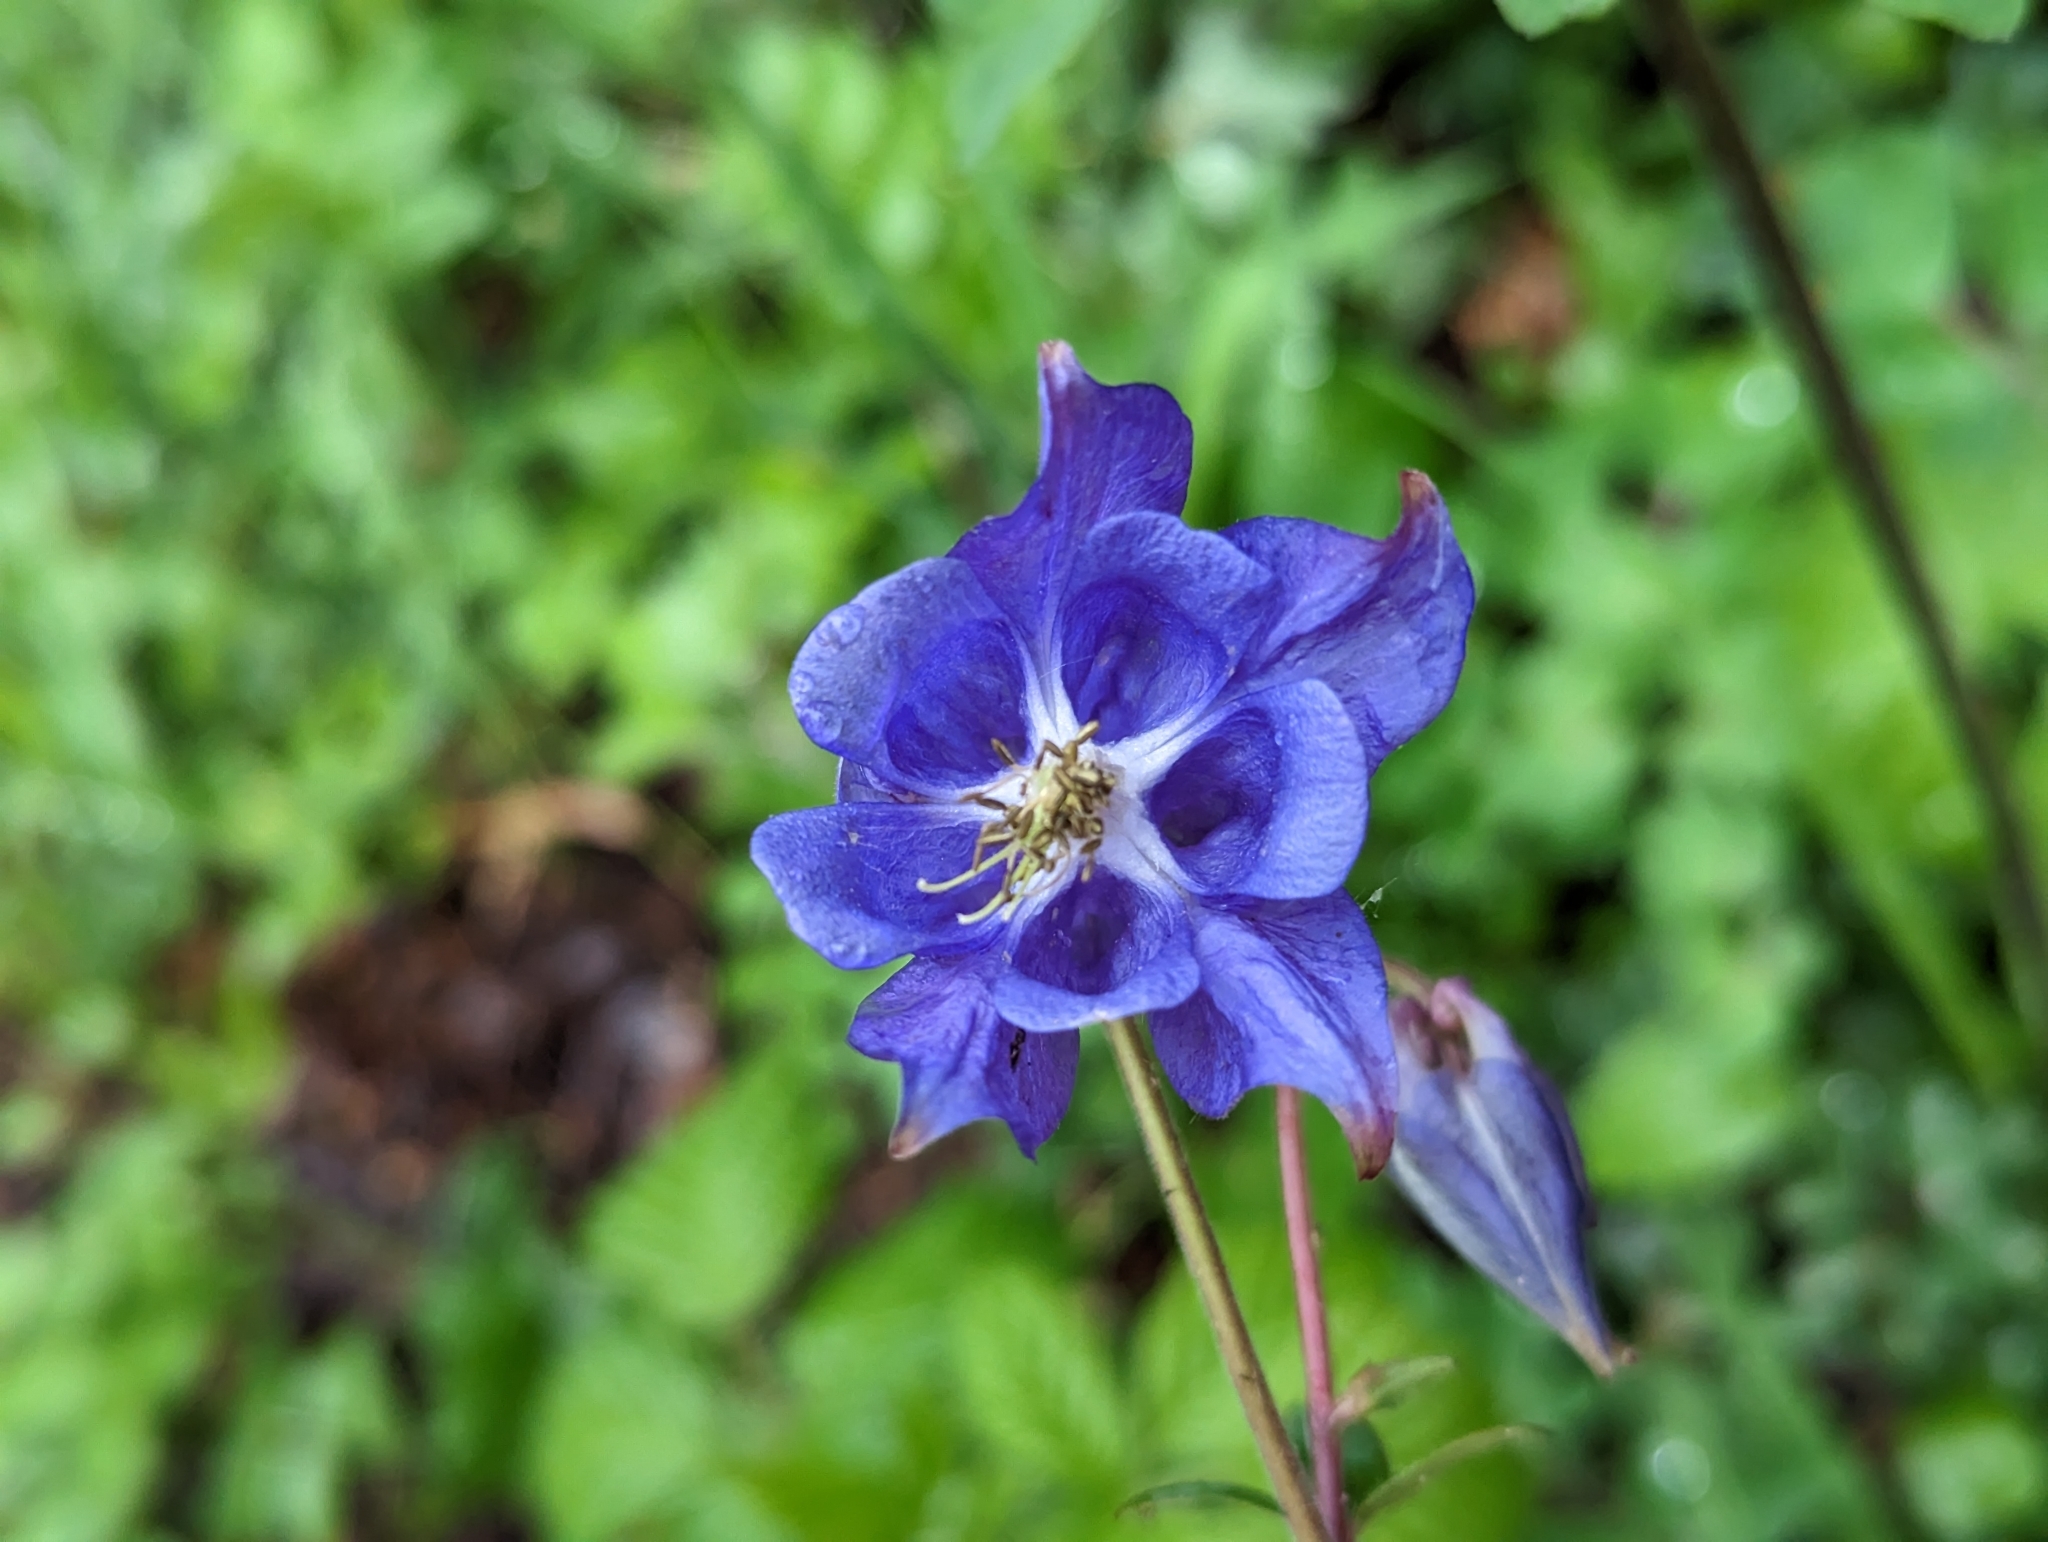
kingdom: Plantae
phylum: Tracheophyta
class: Magnoliopsida
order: Ranunculales
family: Ranunculaceae
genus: Aquilegia
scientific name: Aquilegia vulgaris
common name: Columbine
